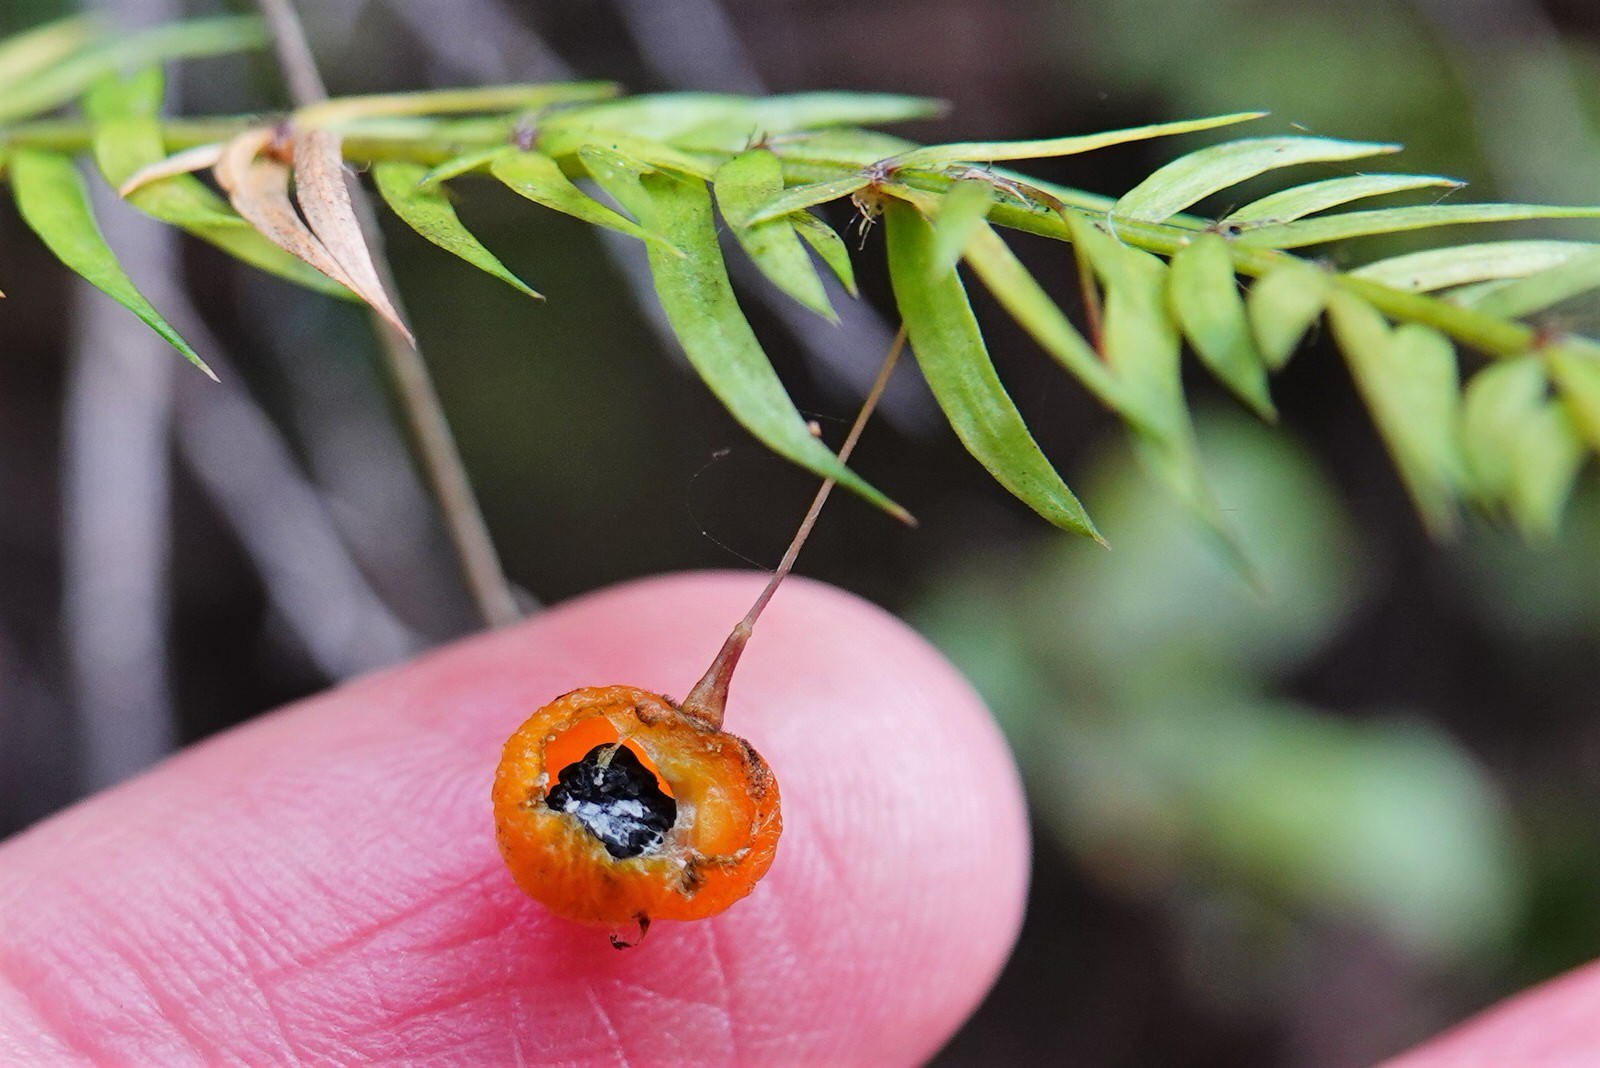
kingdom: Plantae
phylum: Tracheophyta
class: Liliopsida
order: Asparagales
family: Asparagaceae
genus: Asparagus
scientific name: Asparagus scandens
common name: Asparagus-fern
